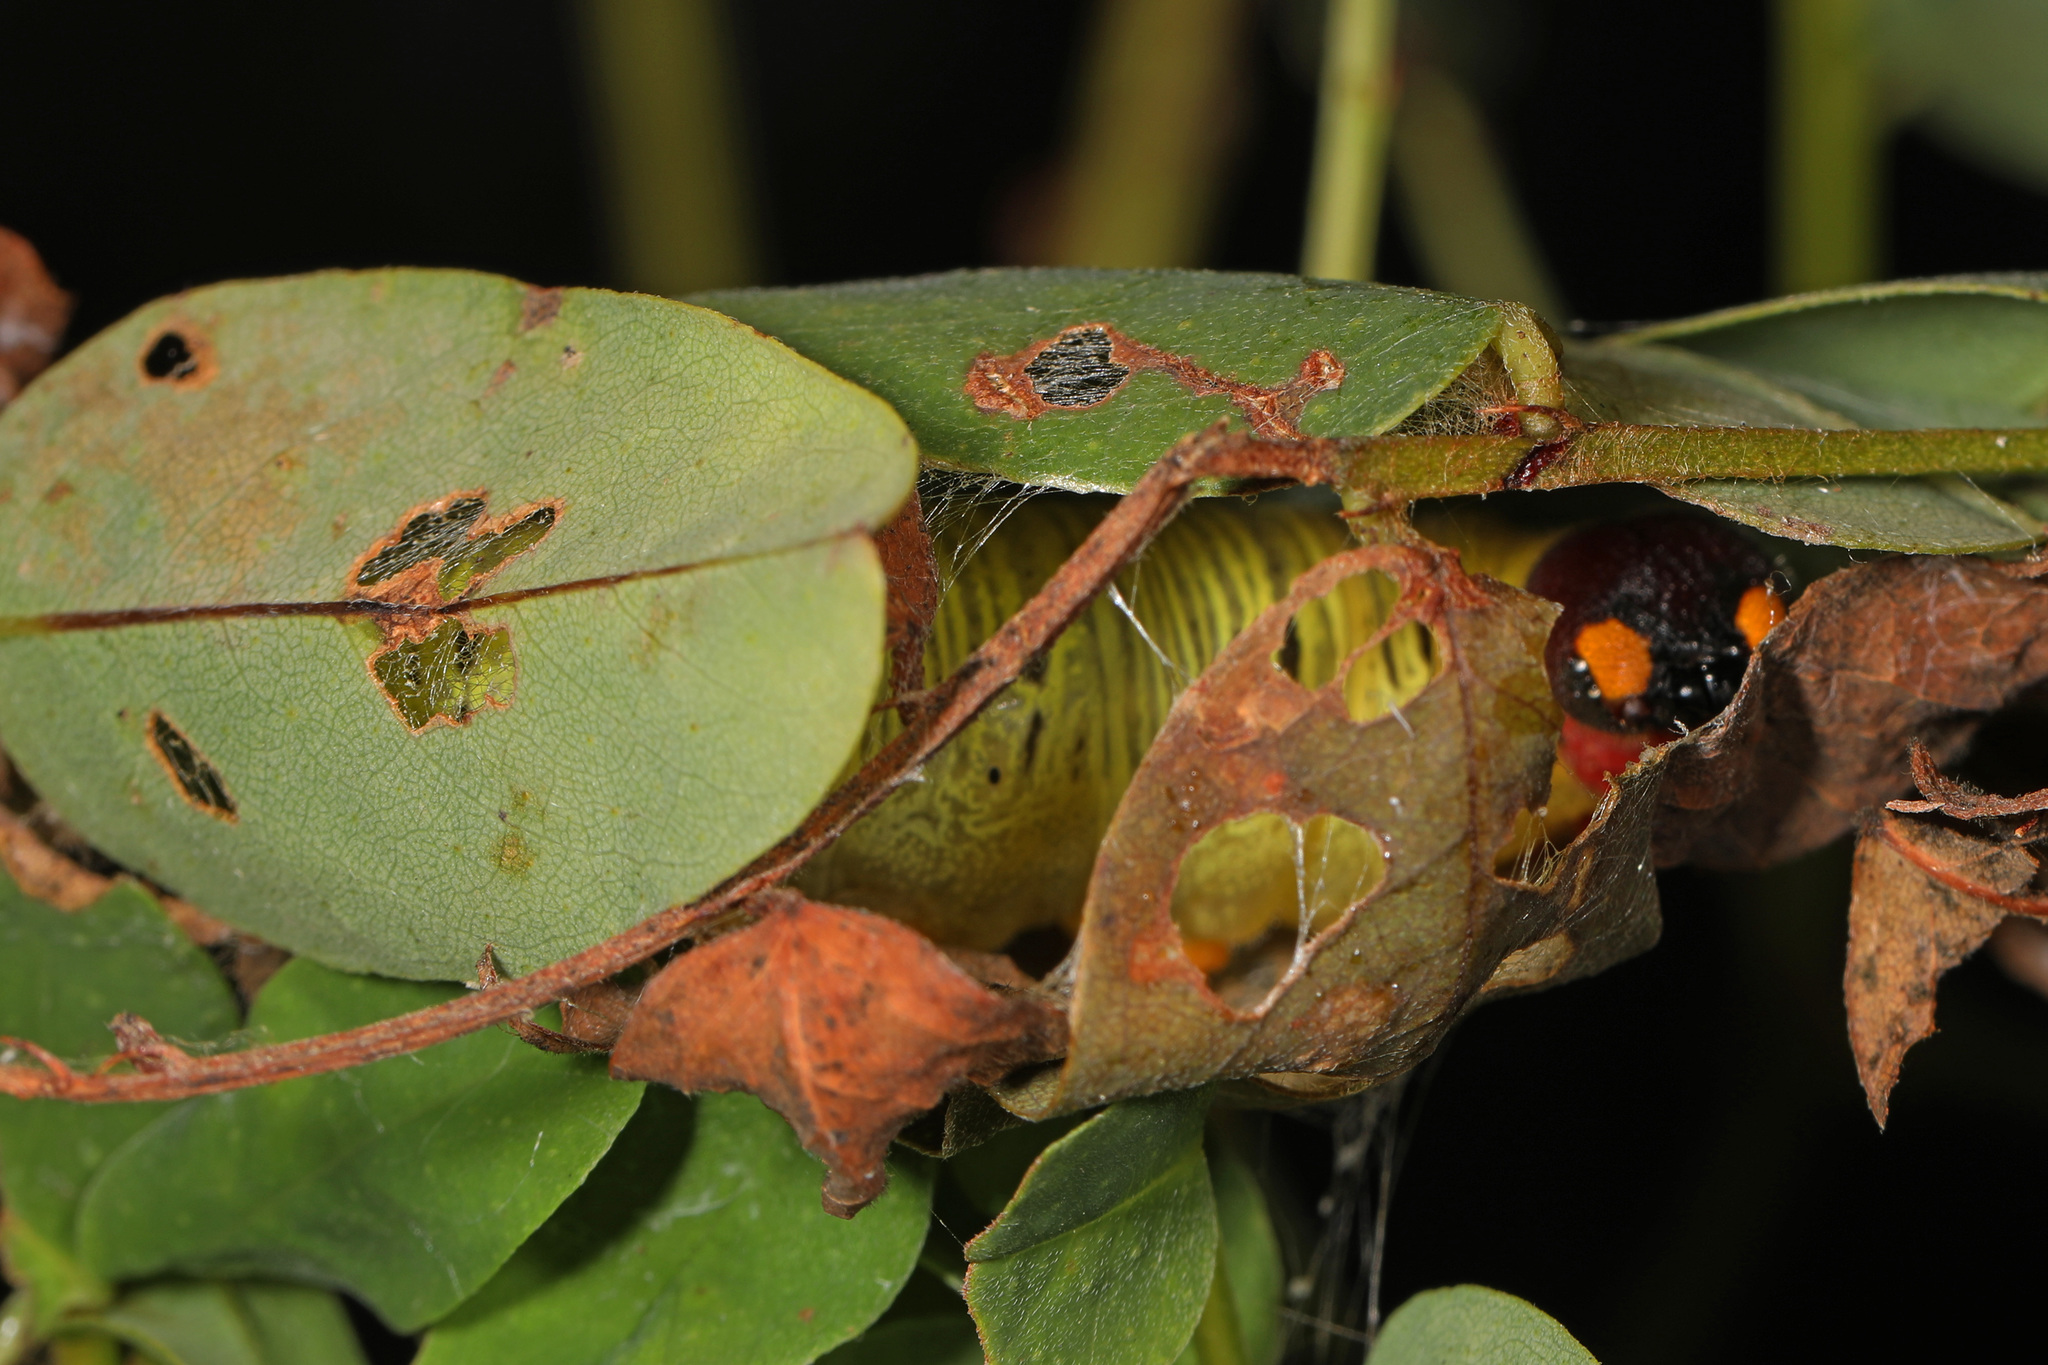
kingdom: Animalia
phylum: Arthropoda
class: Insecta
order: Lepidoptera
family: Hesperiidae
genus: Epargyreus
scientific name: Epargyreus clarus
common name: Silver-spotted skipper
